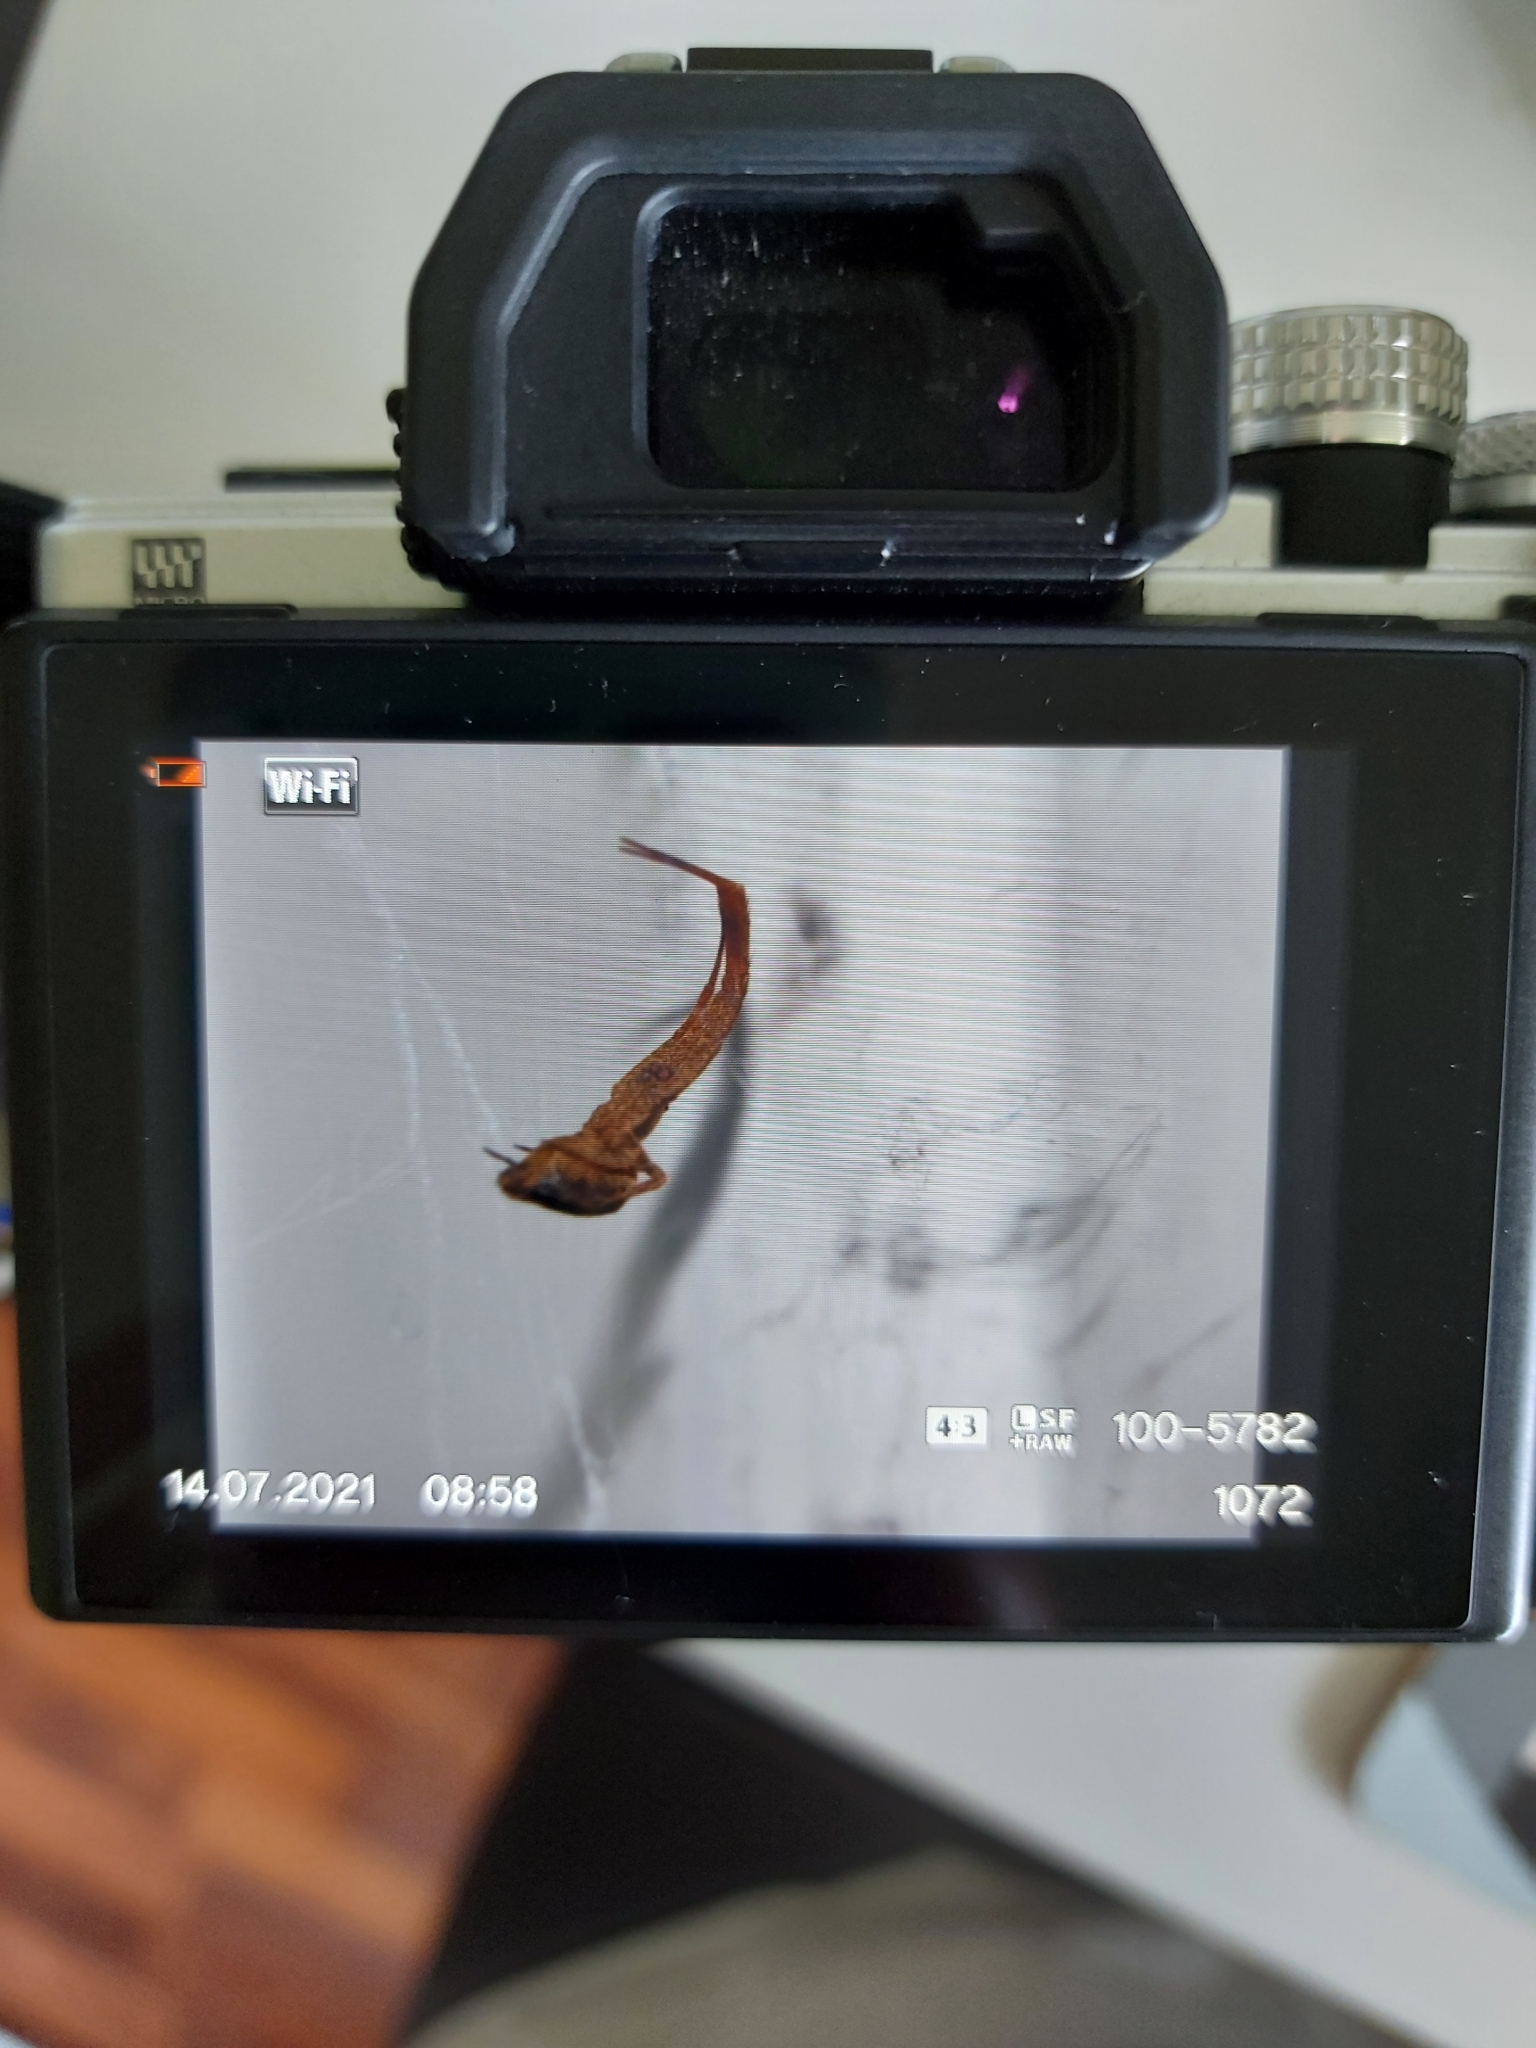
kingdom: Animalia
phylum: Arthropoda
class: Arachnida
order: Araneae
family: Uloboridae
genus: Uloborus
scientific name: Uloborus plumipes
